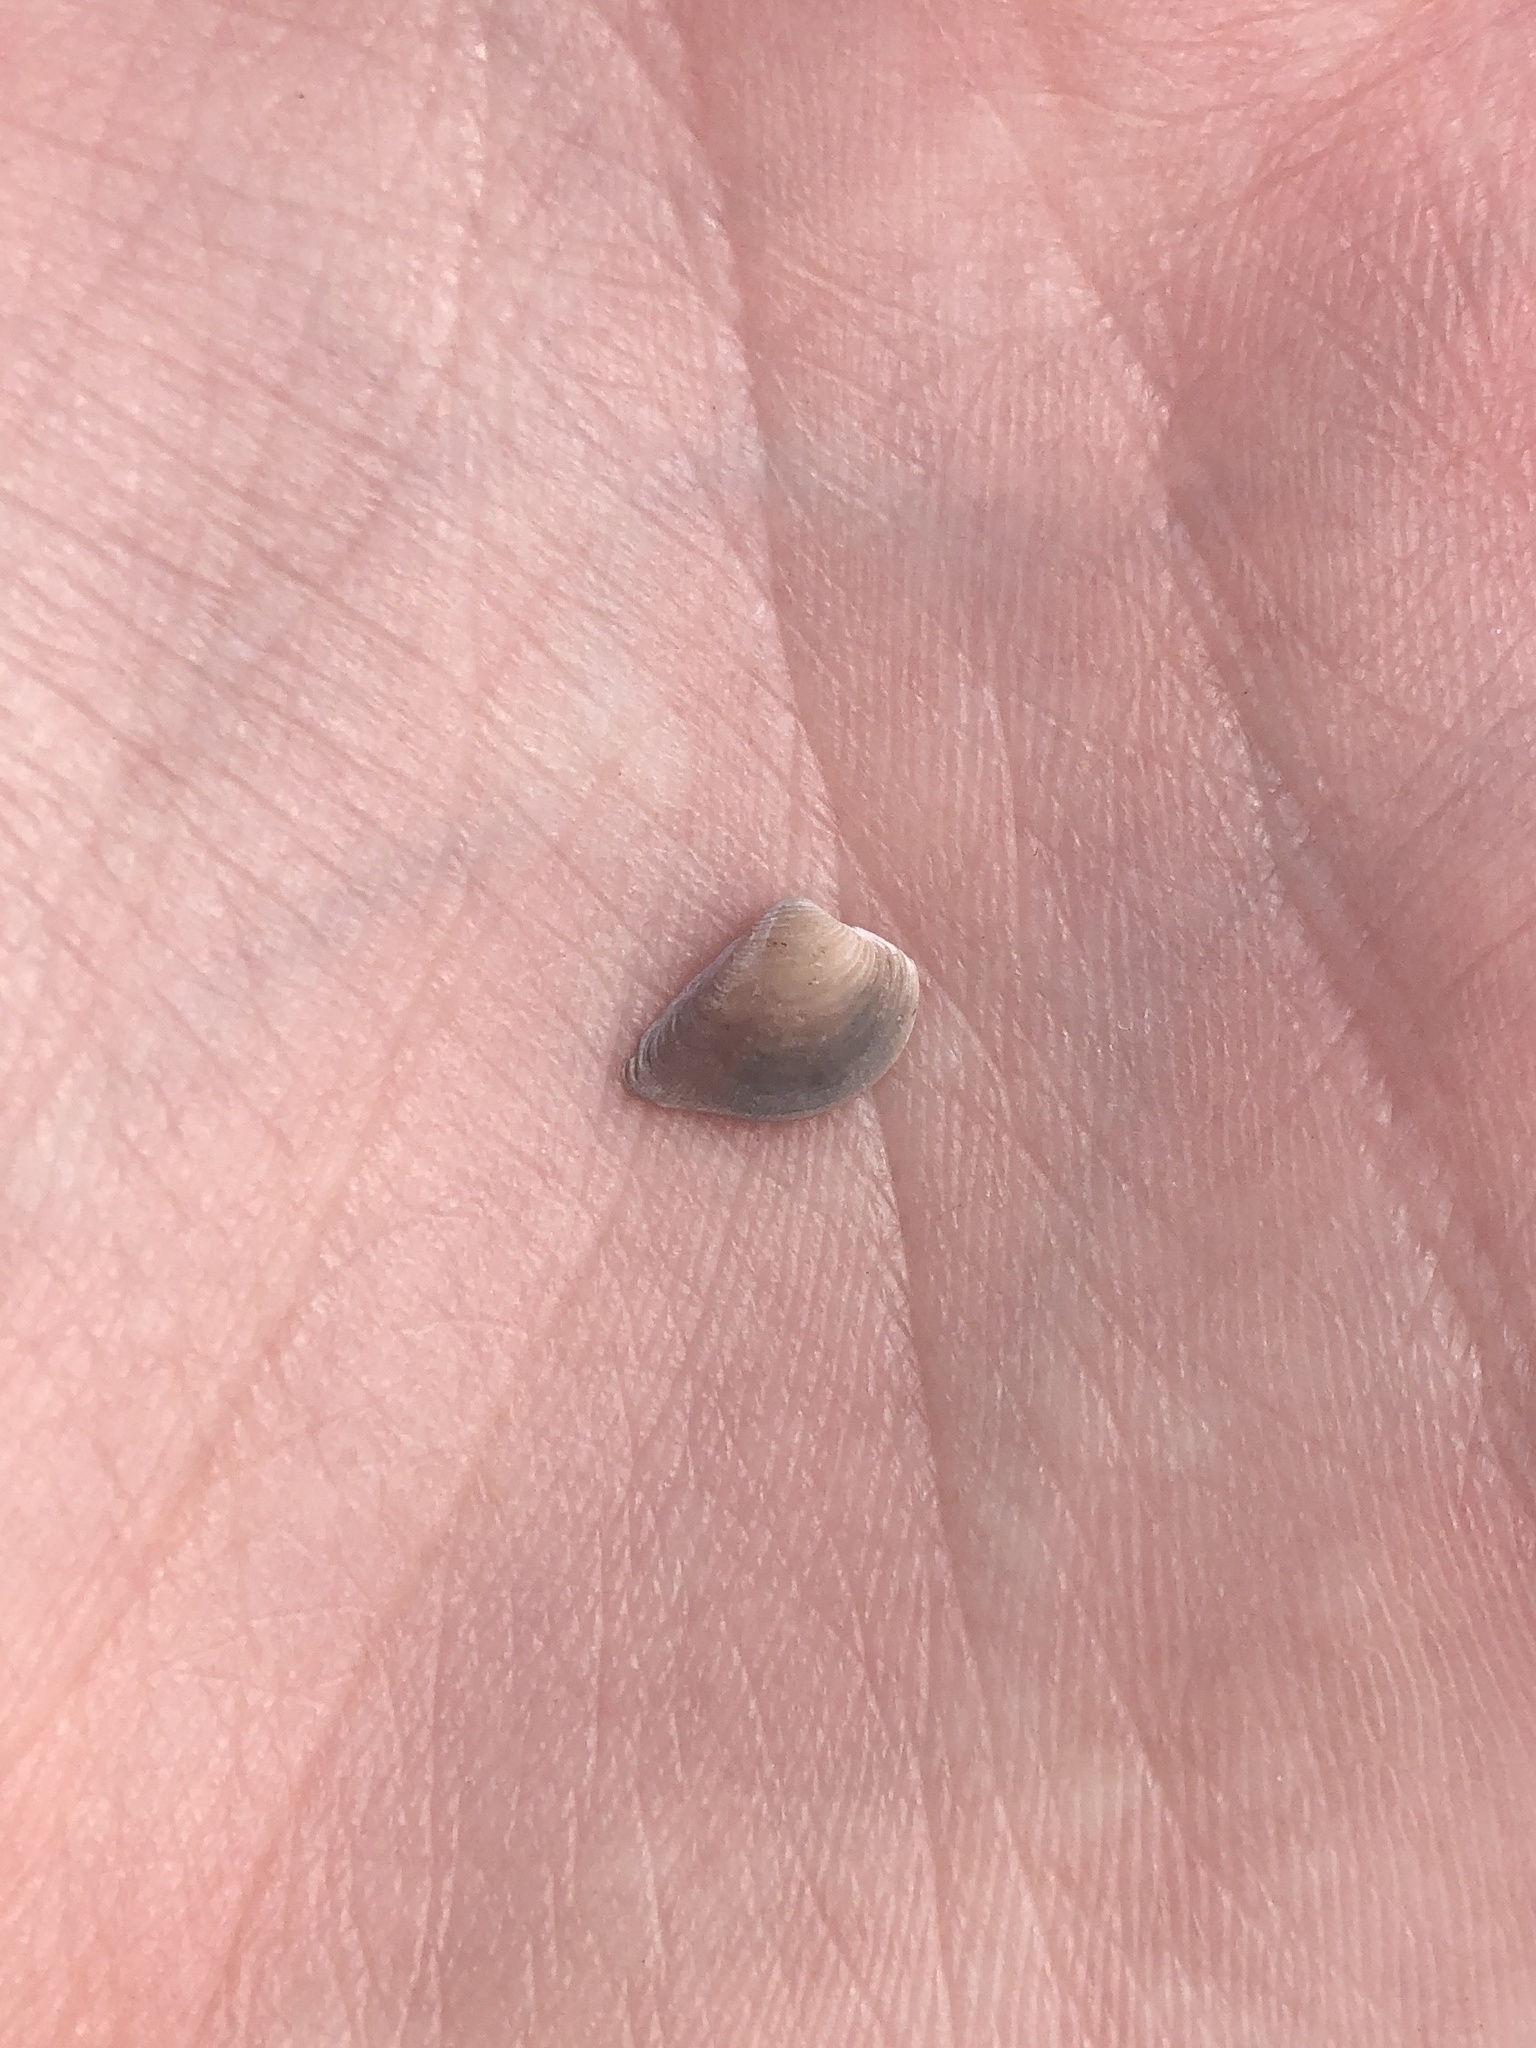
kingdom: Animalia
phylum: Mollusca
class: Bivalvia
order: Venerida
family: Veneridae
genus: Anomalocardia
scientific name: Anomalocardia cuneimeris
